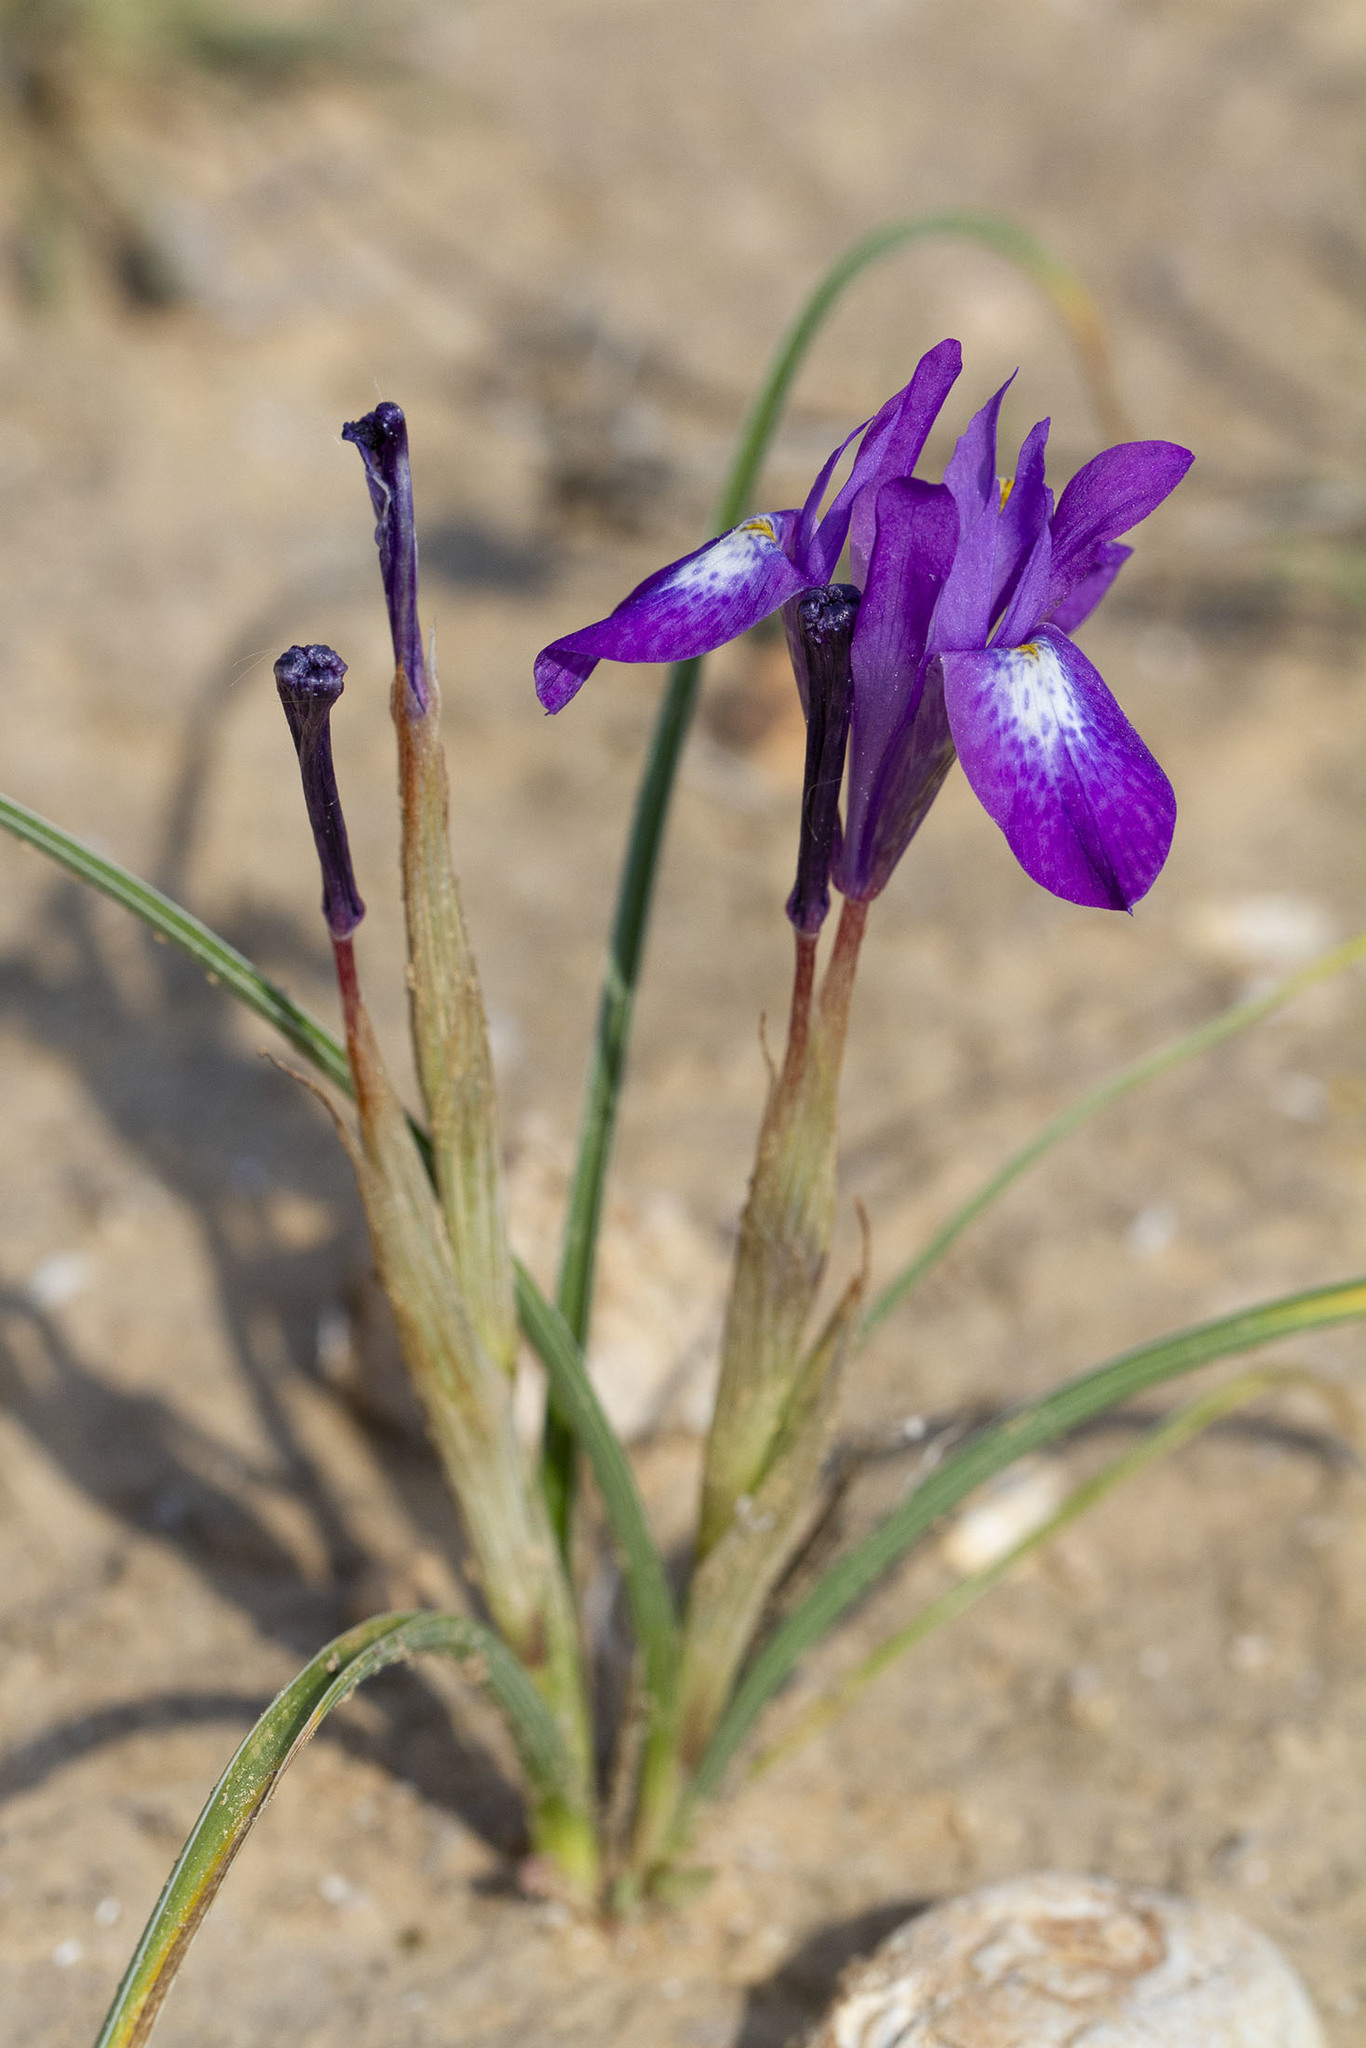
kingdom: Plantae
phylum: Tracheophyta
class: Liliopsida
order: Asparagales
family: Iridaceae
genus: Moraea
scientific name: Moraea sisyrinchium
